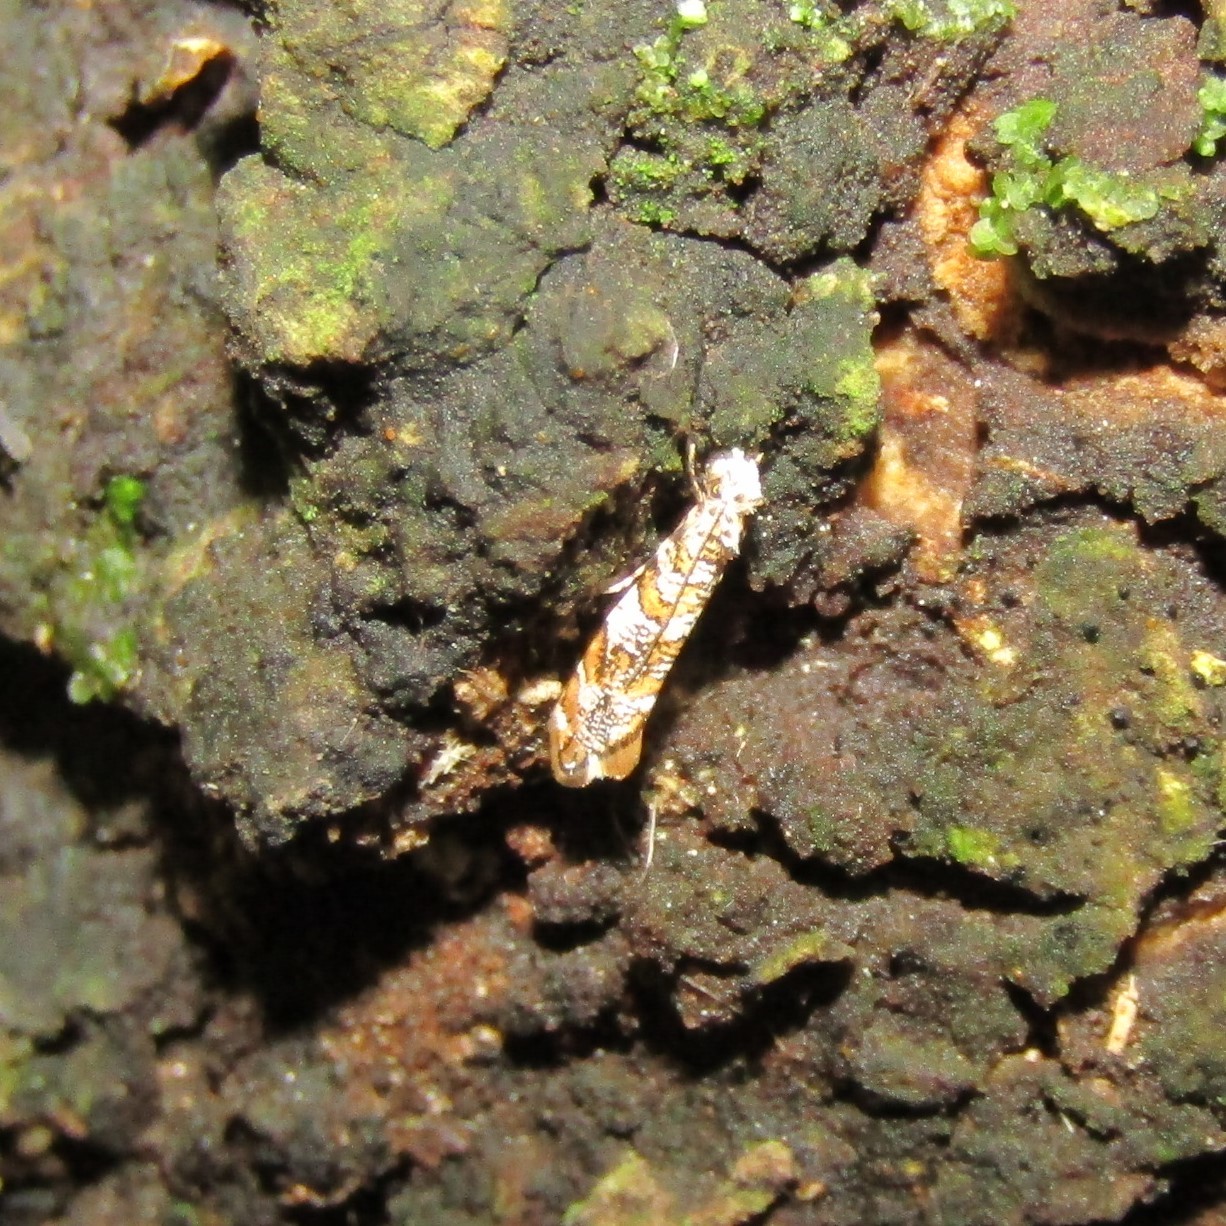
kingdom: Animalia
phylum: Arthropoda
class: Insecta
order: Lepidoptera
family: Tineidae
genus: Eschatotypa
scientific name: Eschatotypa derogatella
